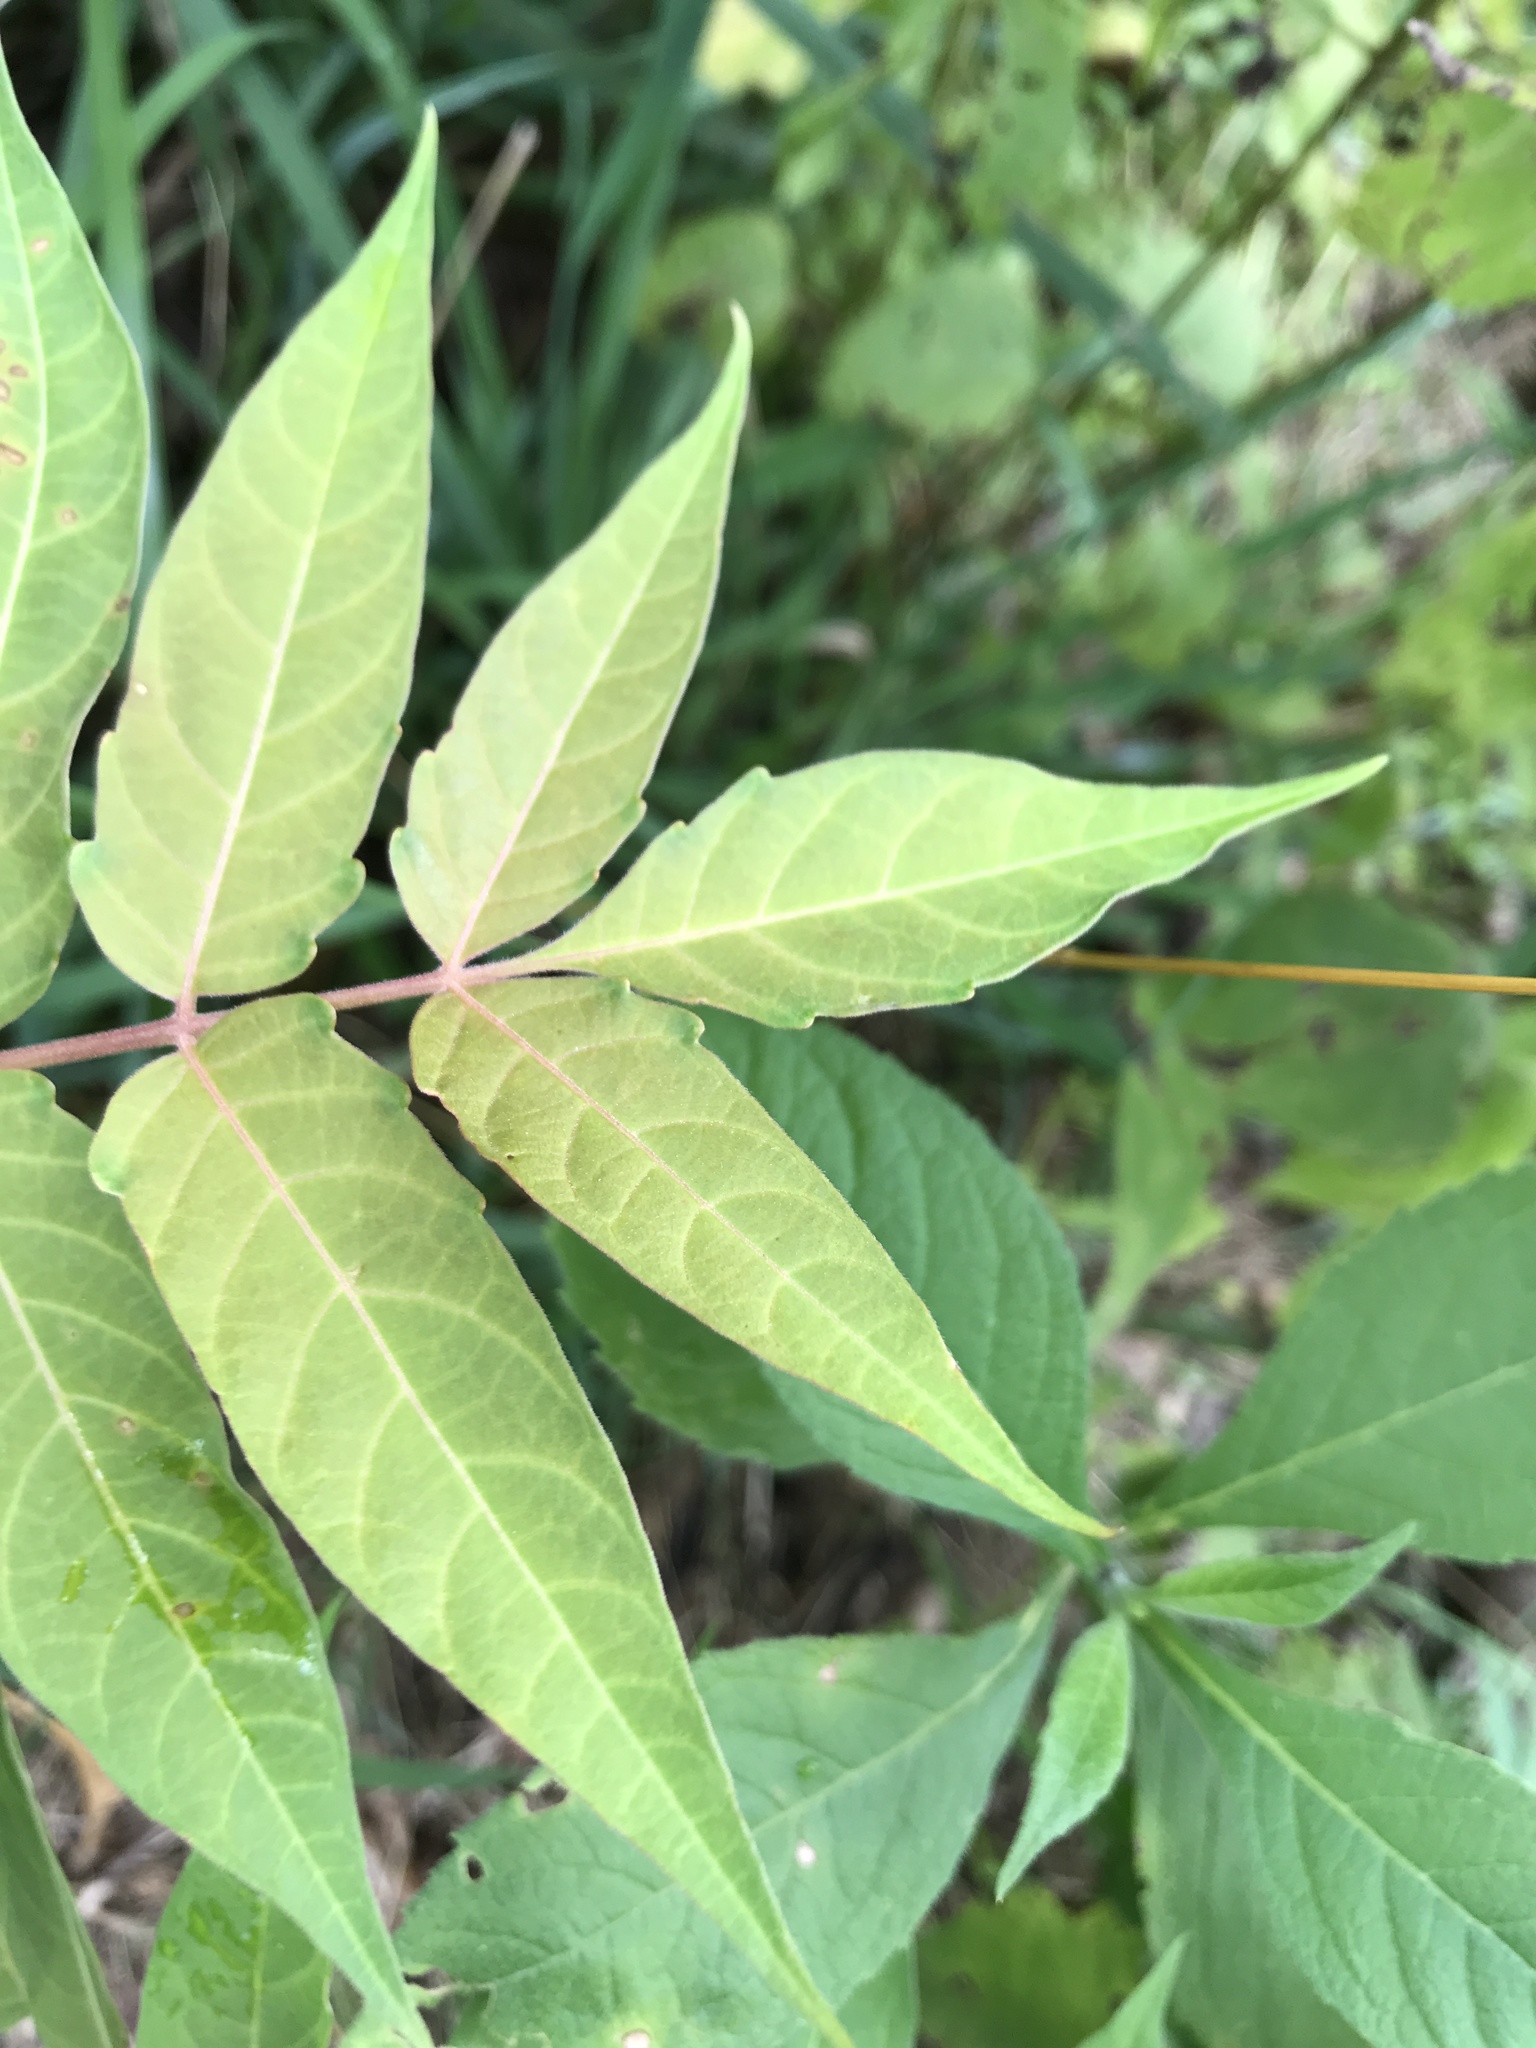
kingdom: Plantae
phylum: Tracheophyta
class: Magnoliopsida
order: Sapindales
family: Simaroubaceae
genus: Ailanthus
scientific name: Ailanthus altissima
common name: Tree-of-heaven
